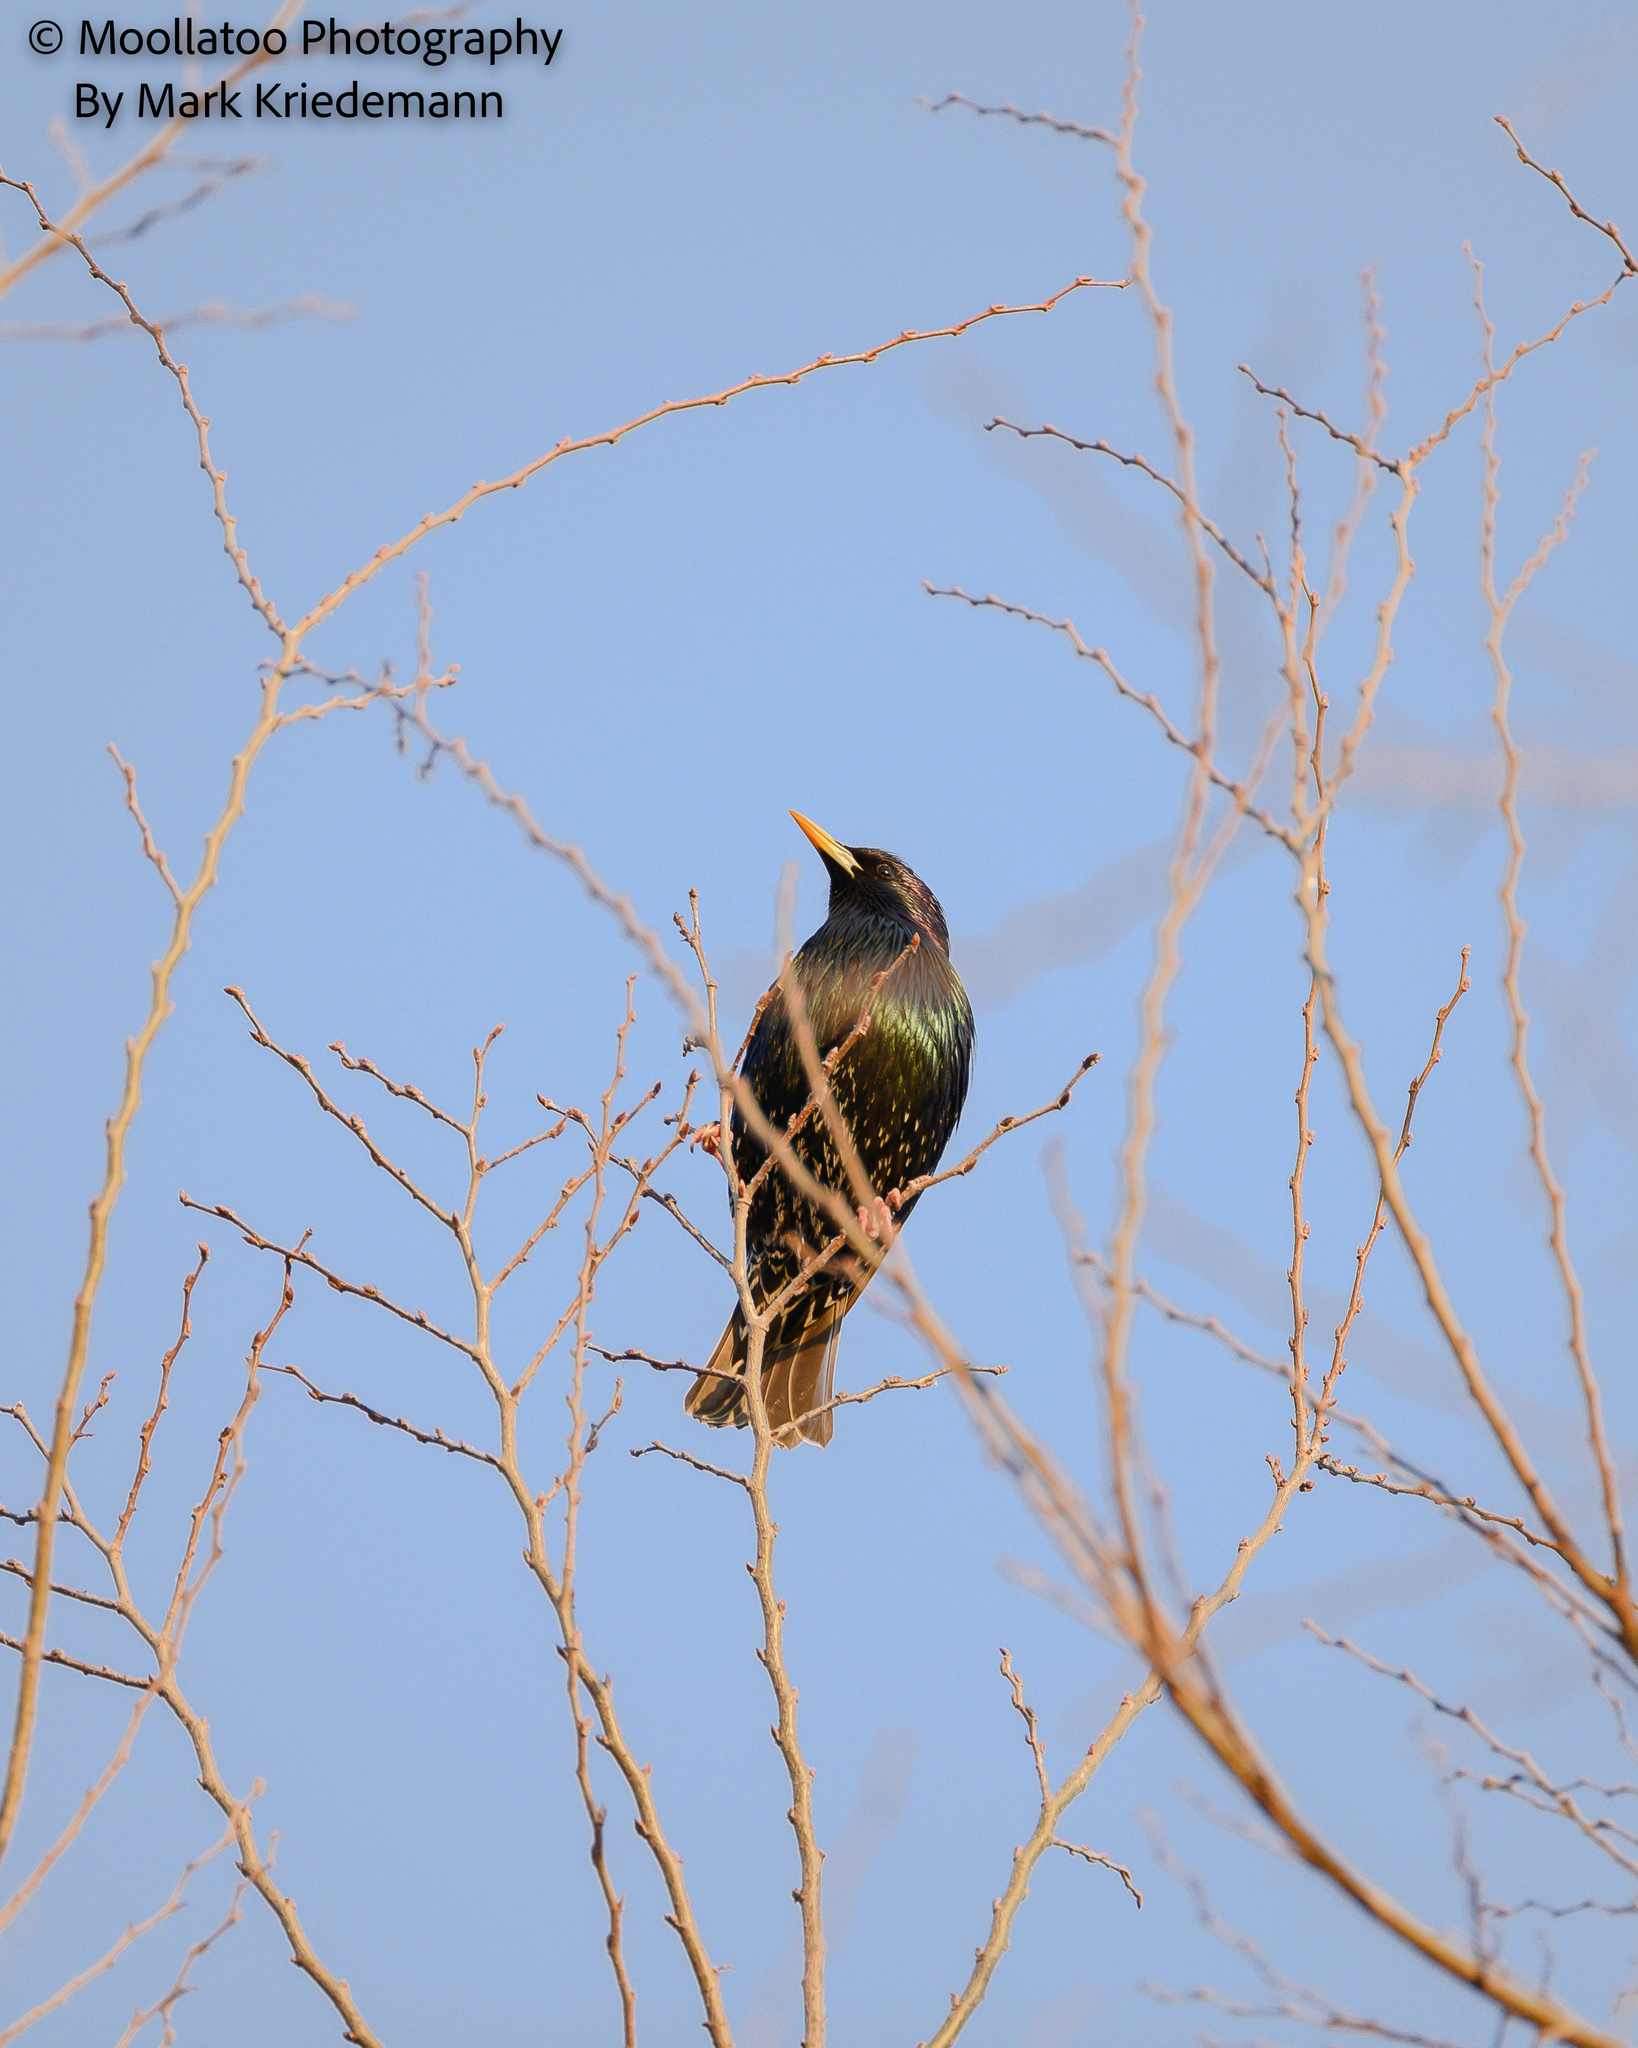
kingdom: Animalia
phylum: Chordata
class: Aves
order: Passeriformes
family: Sturnidae
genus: Sturnus
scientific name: Sturnus vulgaris
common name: Common starling
